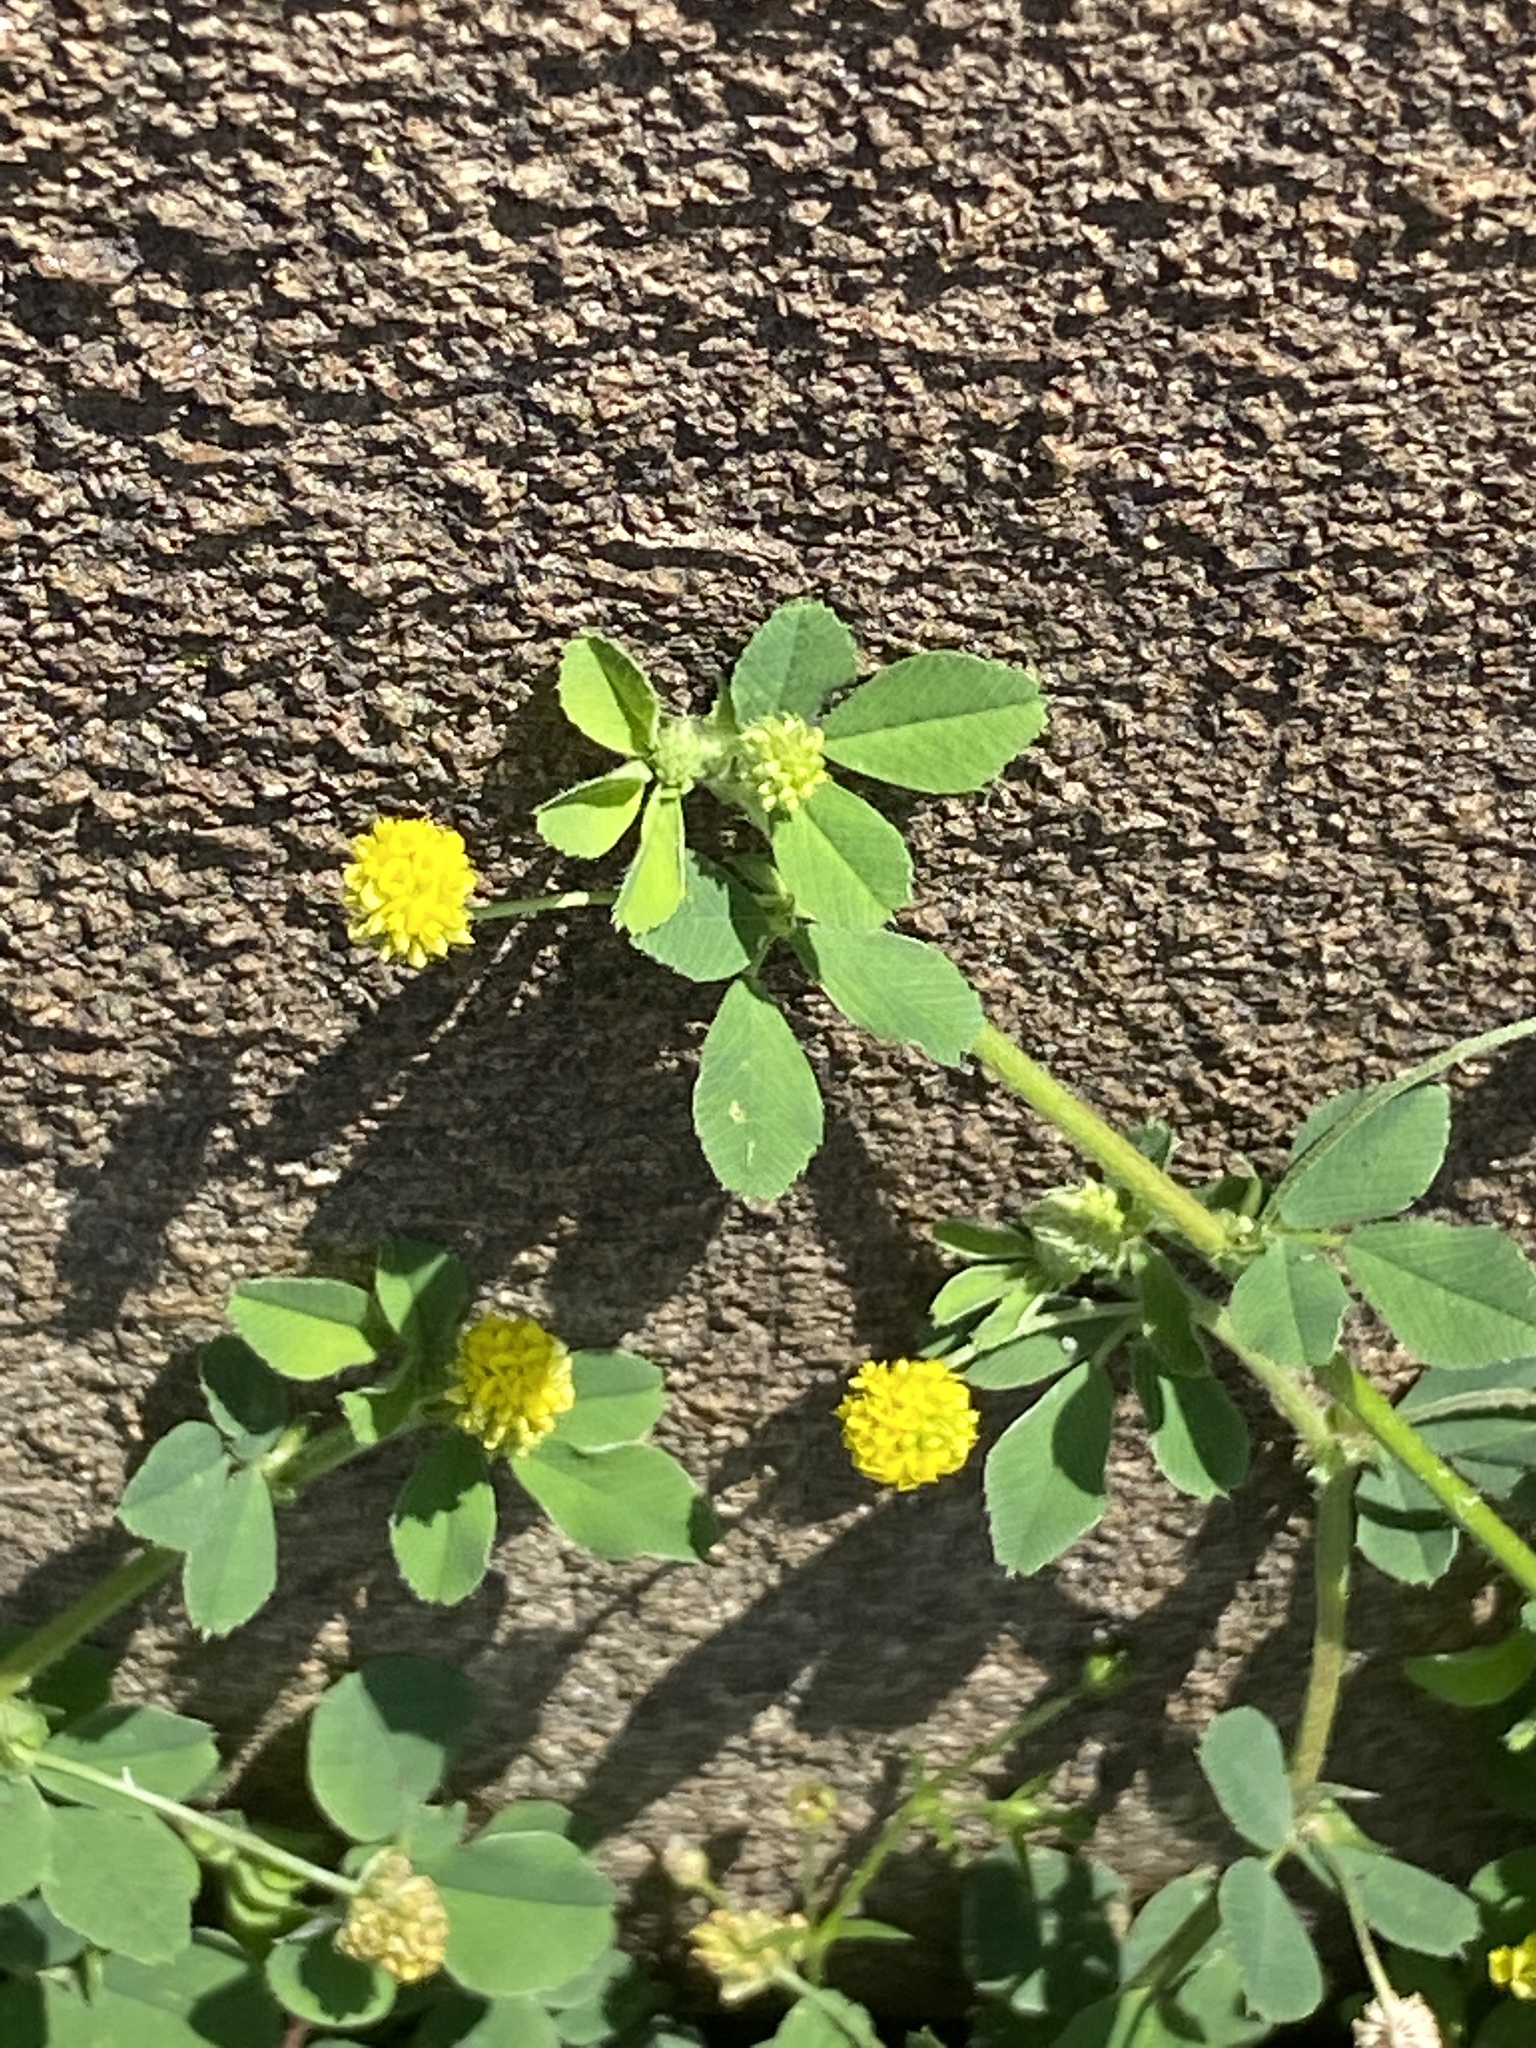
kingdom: Plantae
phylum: Tracheophyta
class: Magnoliopsida
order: Fabales
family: Fabaceae
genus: Medicago
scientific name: Medicago lupulina
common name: Black medick
